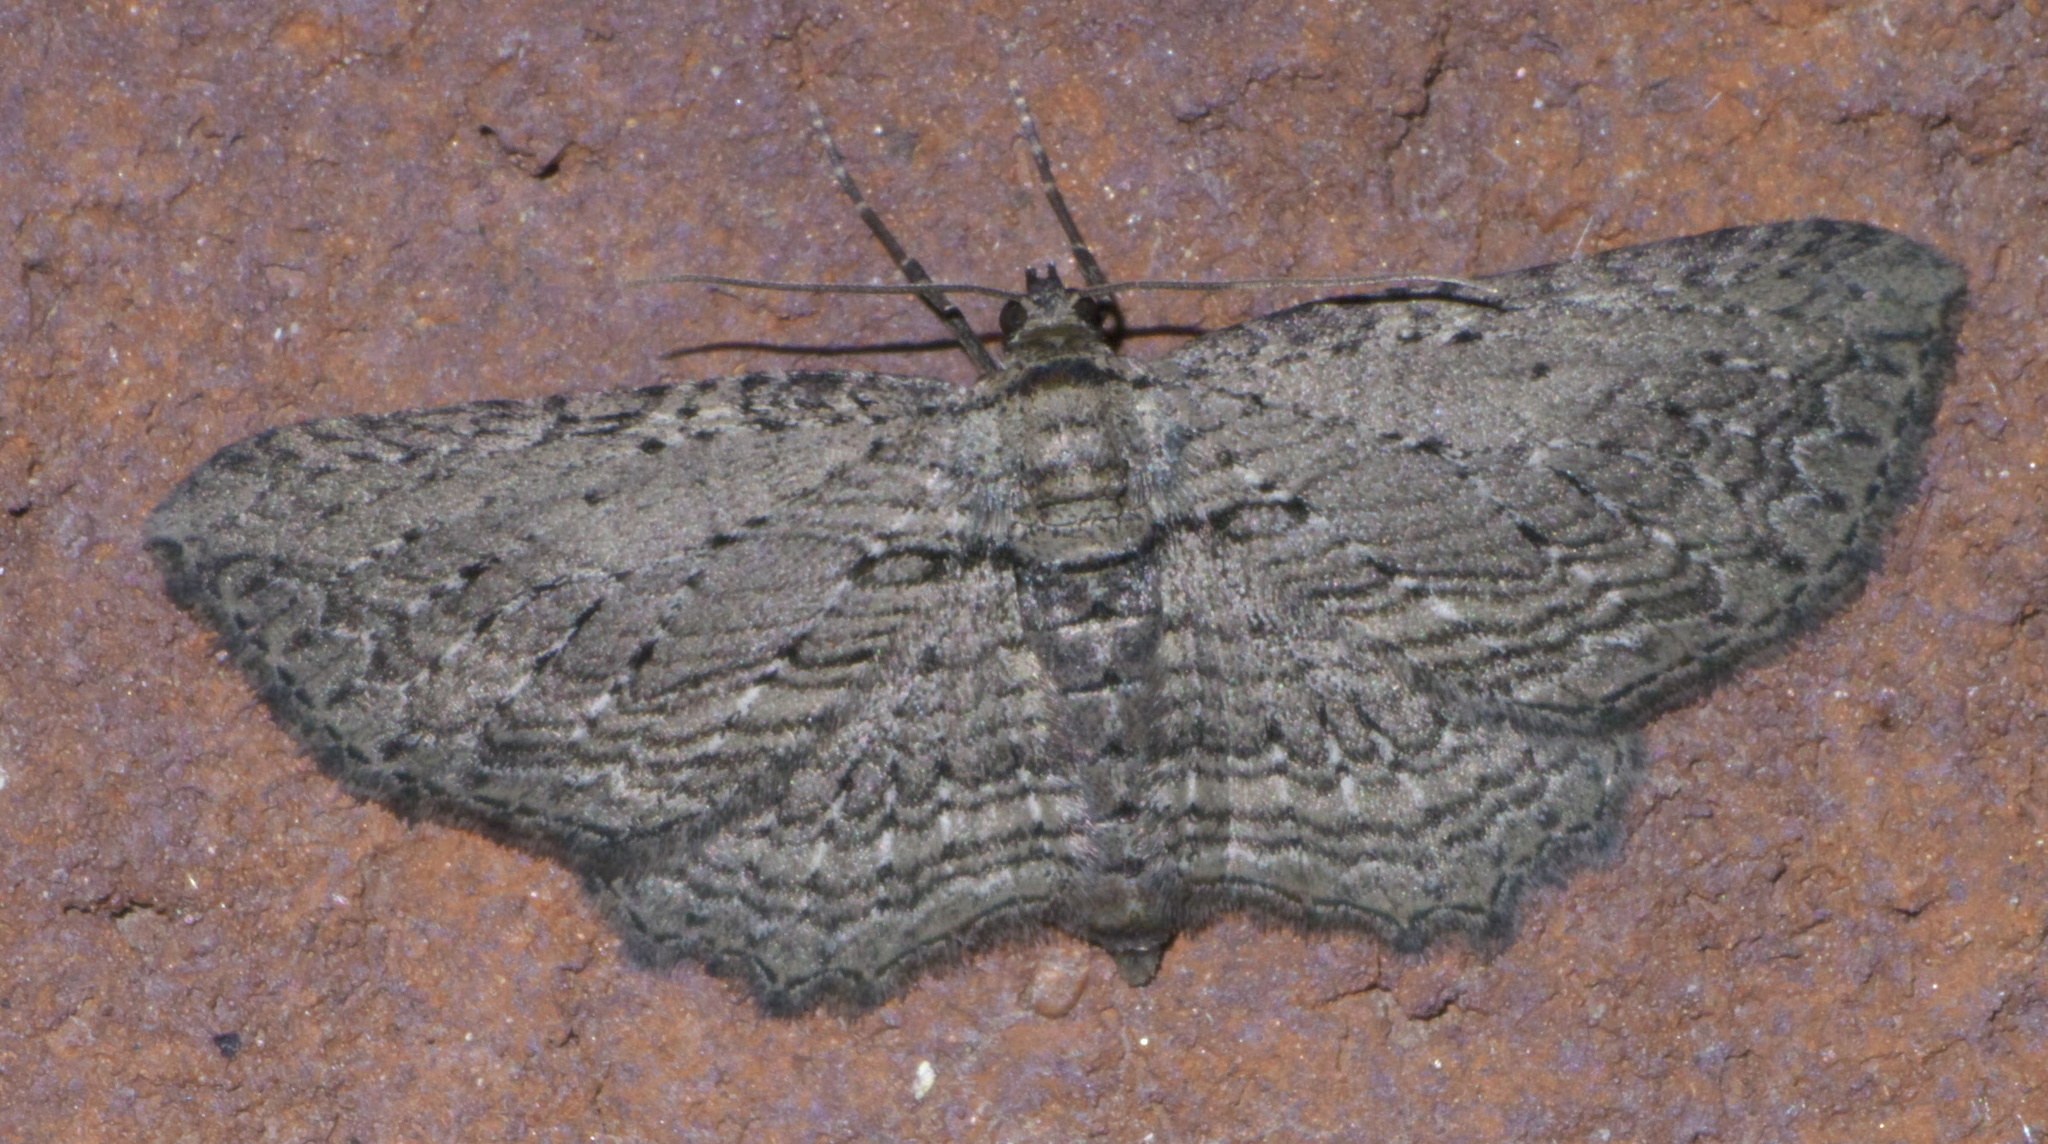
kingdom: Animalia
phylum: Arthropoda
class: Insecta
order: Lepidoptera
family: Geometridae
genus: Horisme
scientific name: Horisme intestinata
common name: Brown bark carpet
